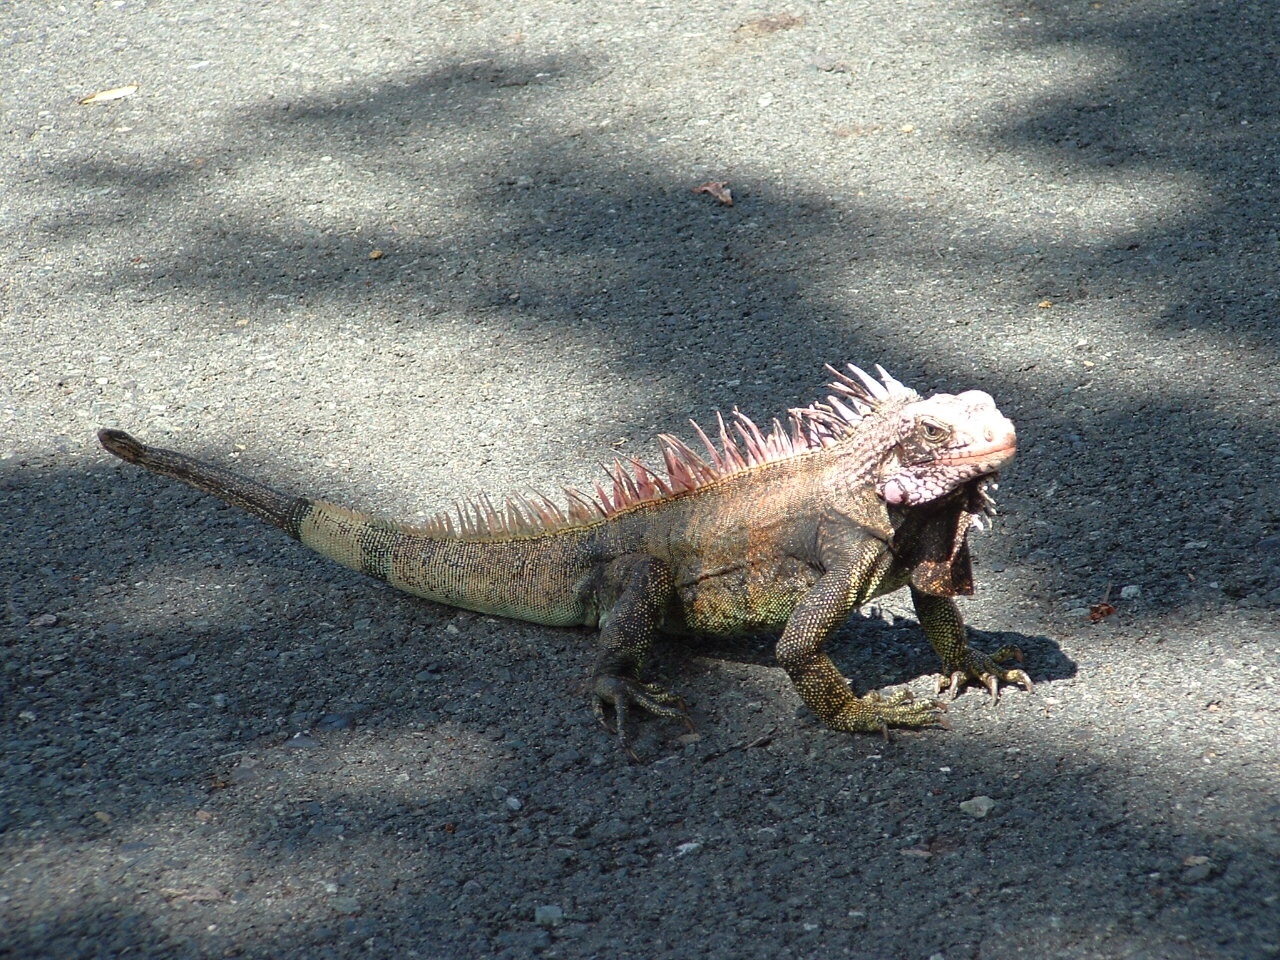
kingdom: Animalia
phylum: Chordata
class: Squamata
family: Iguanidae
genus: Iguana
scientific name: Iguana iguana
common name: Green iguana
